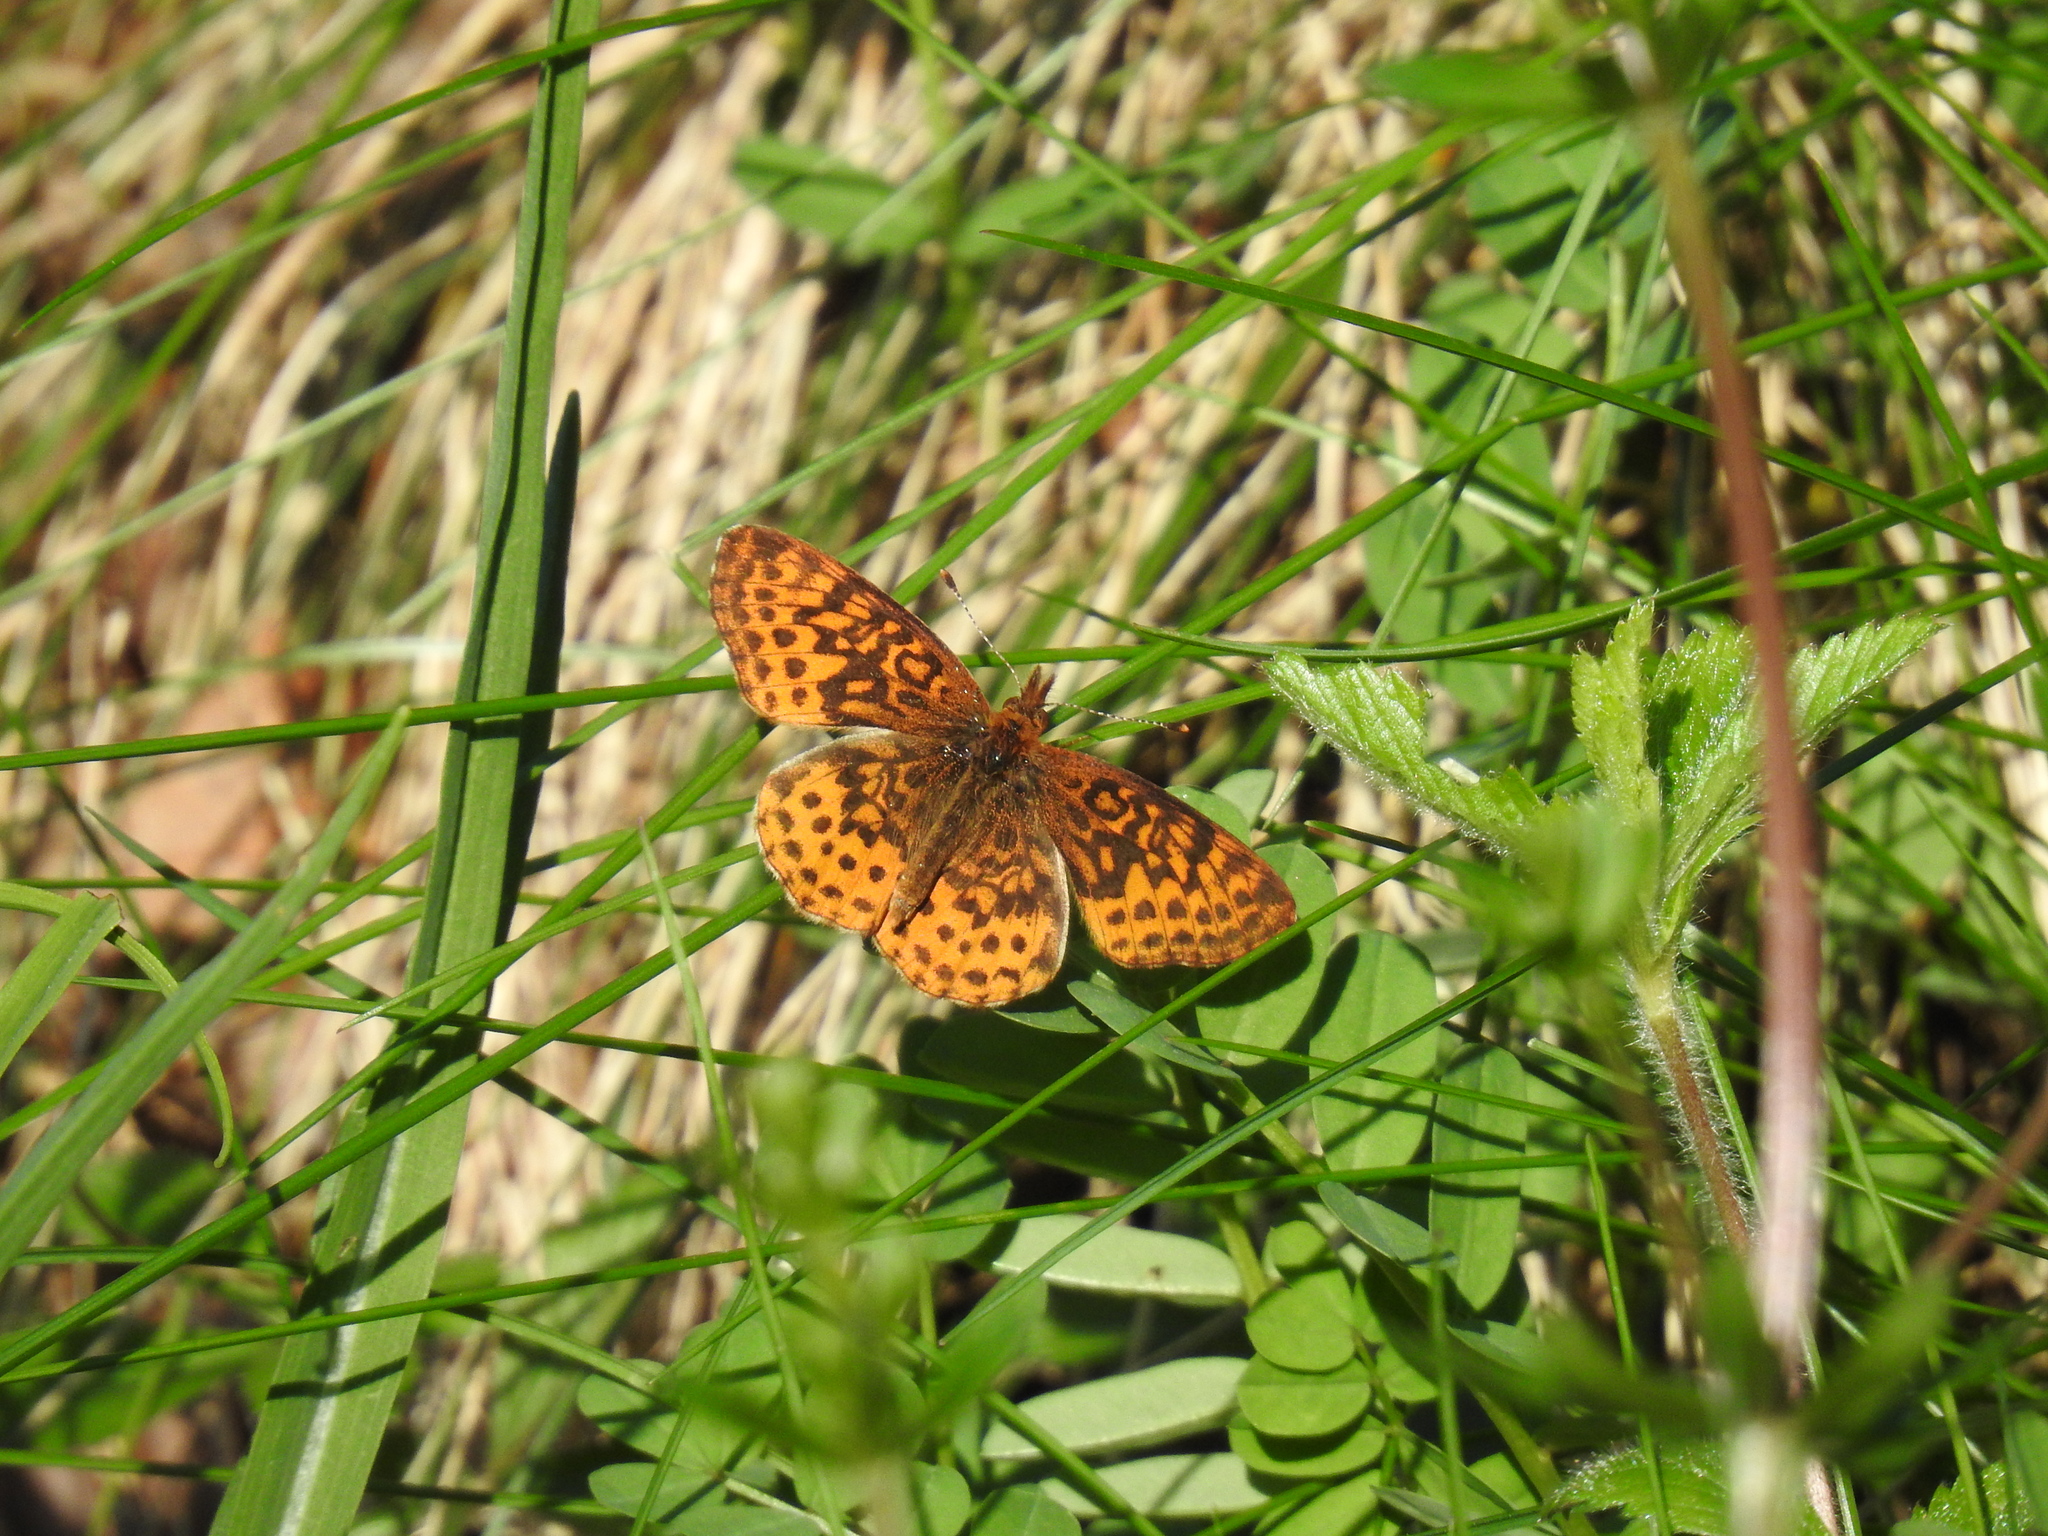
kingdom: Animalia
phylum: Arthropoda
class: Insecta
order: Lepidoptera
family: Nymphalidae
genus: Clossiana
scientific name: Clossiana toddi
